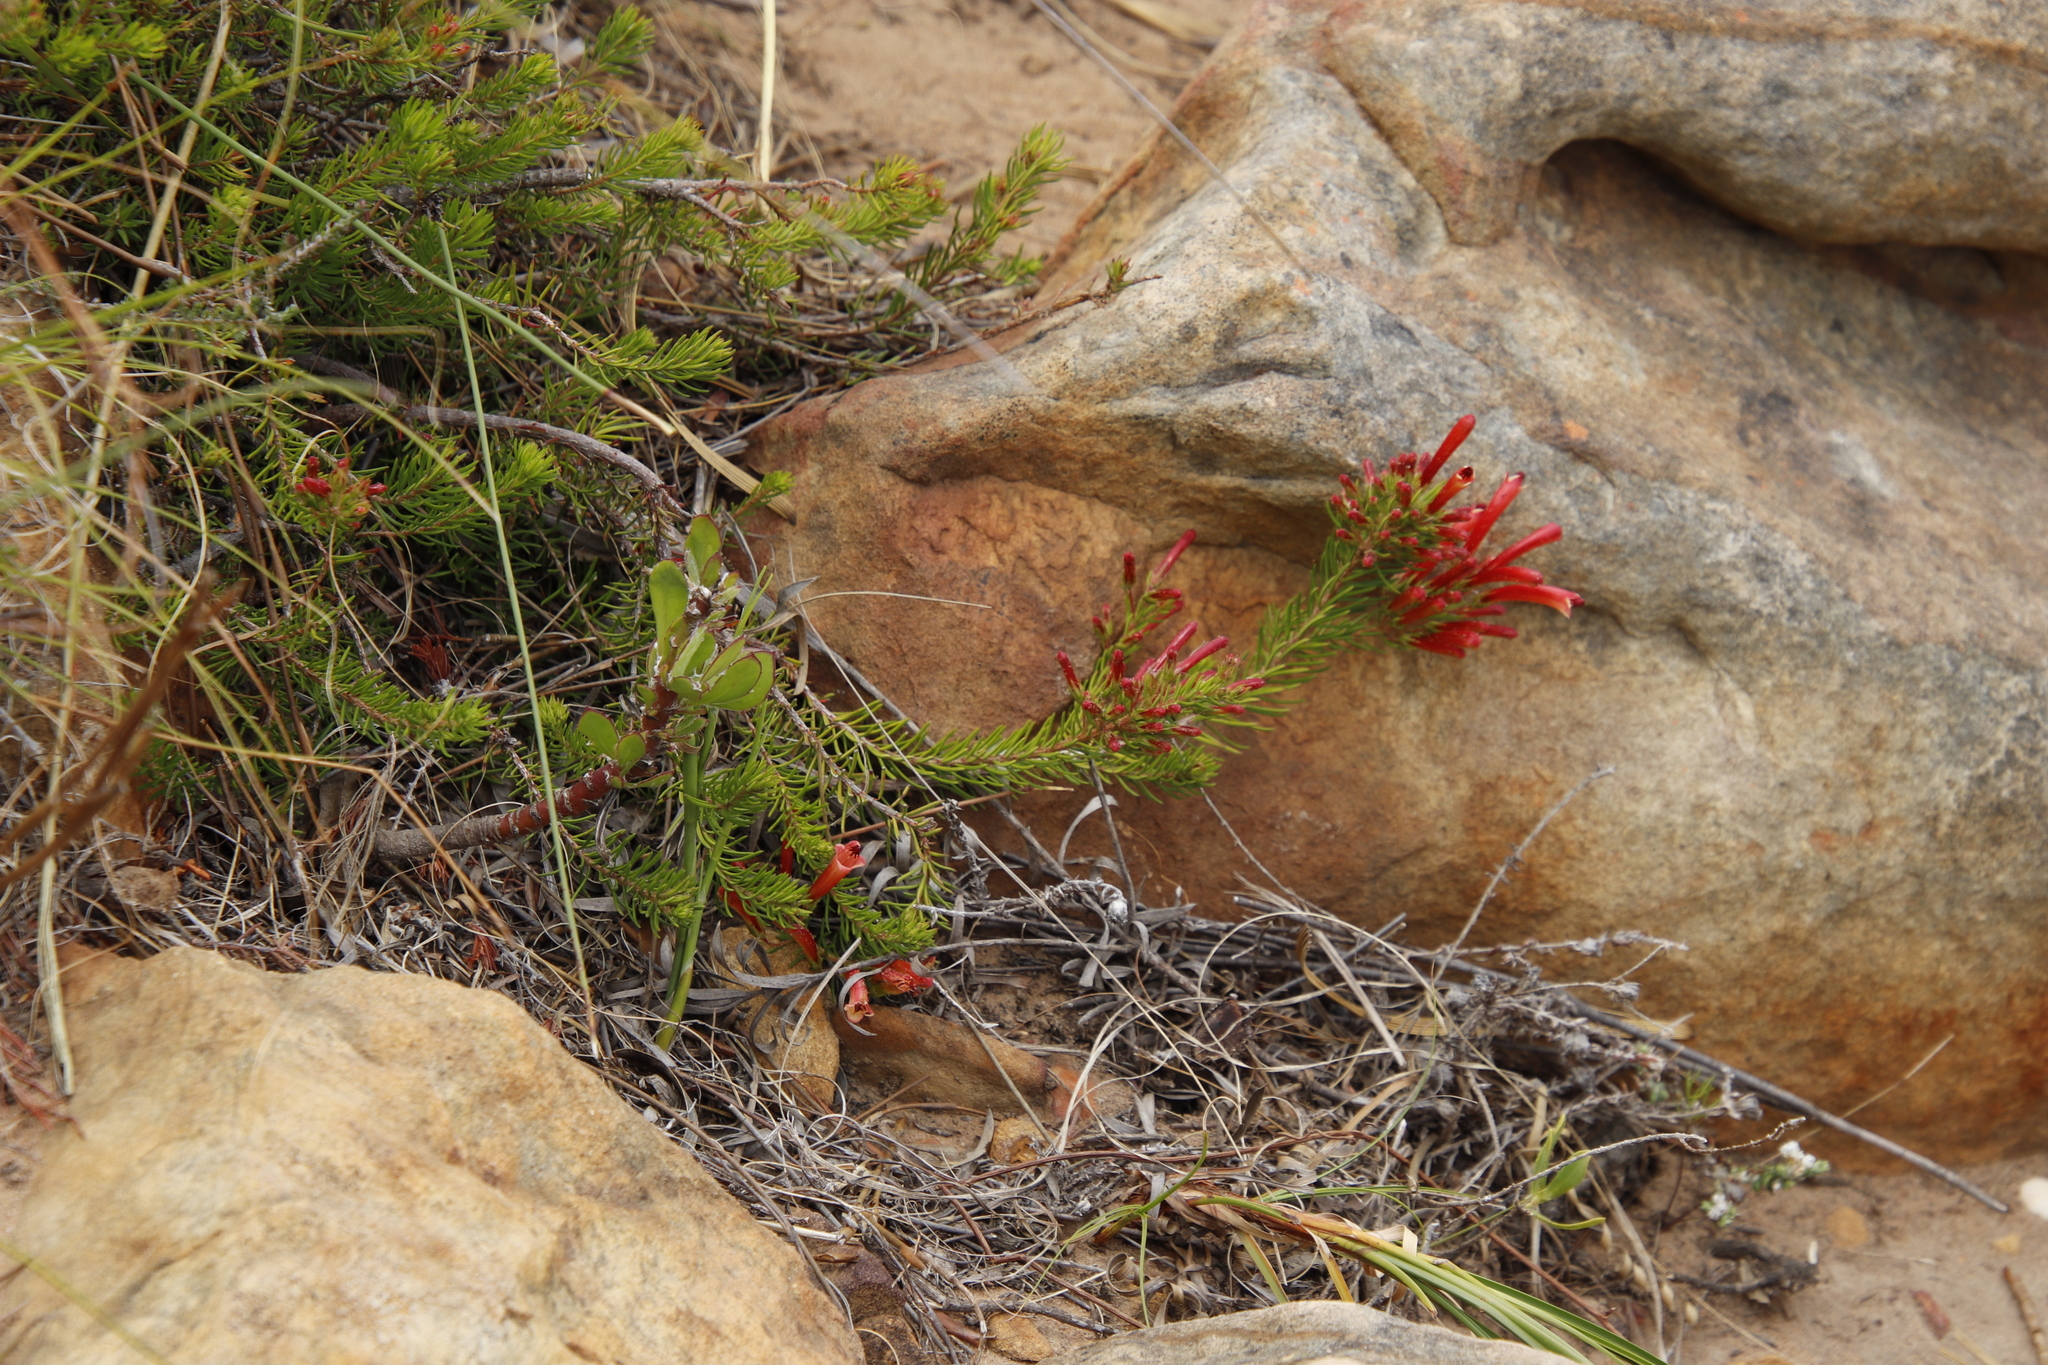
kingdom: Plantae
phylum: Tracheophyta
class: Magnoliopsida
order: Ericales
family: Ericaceae
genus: Erica
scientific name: Erica nevillei
